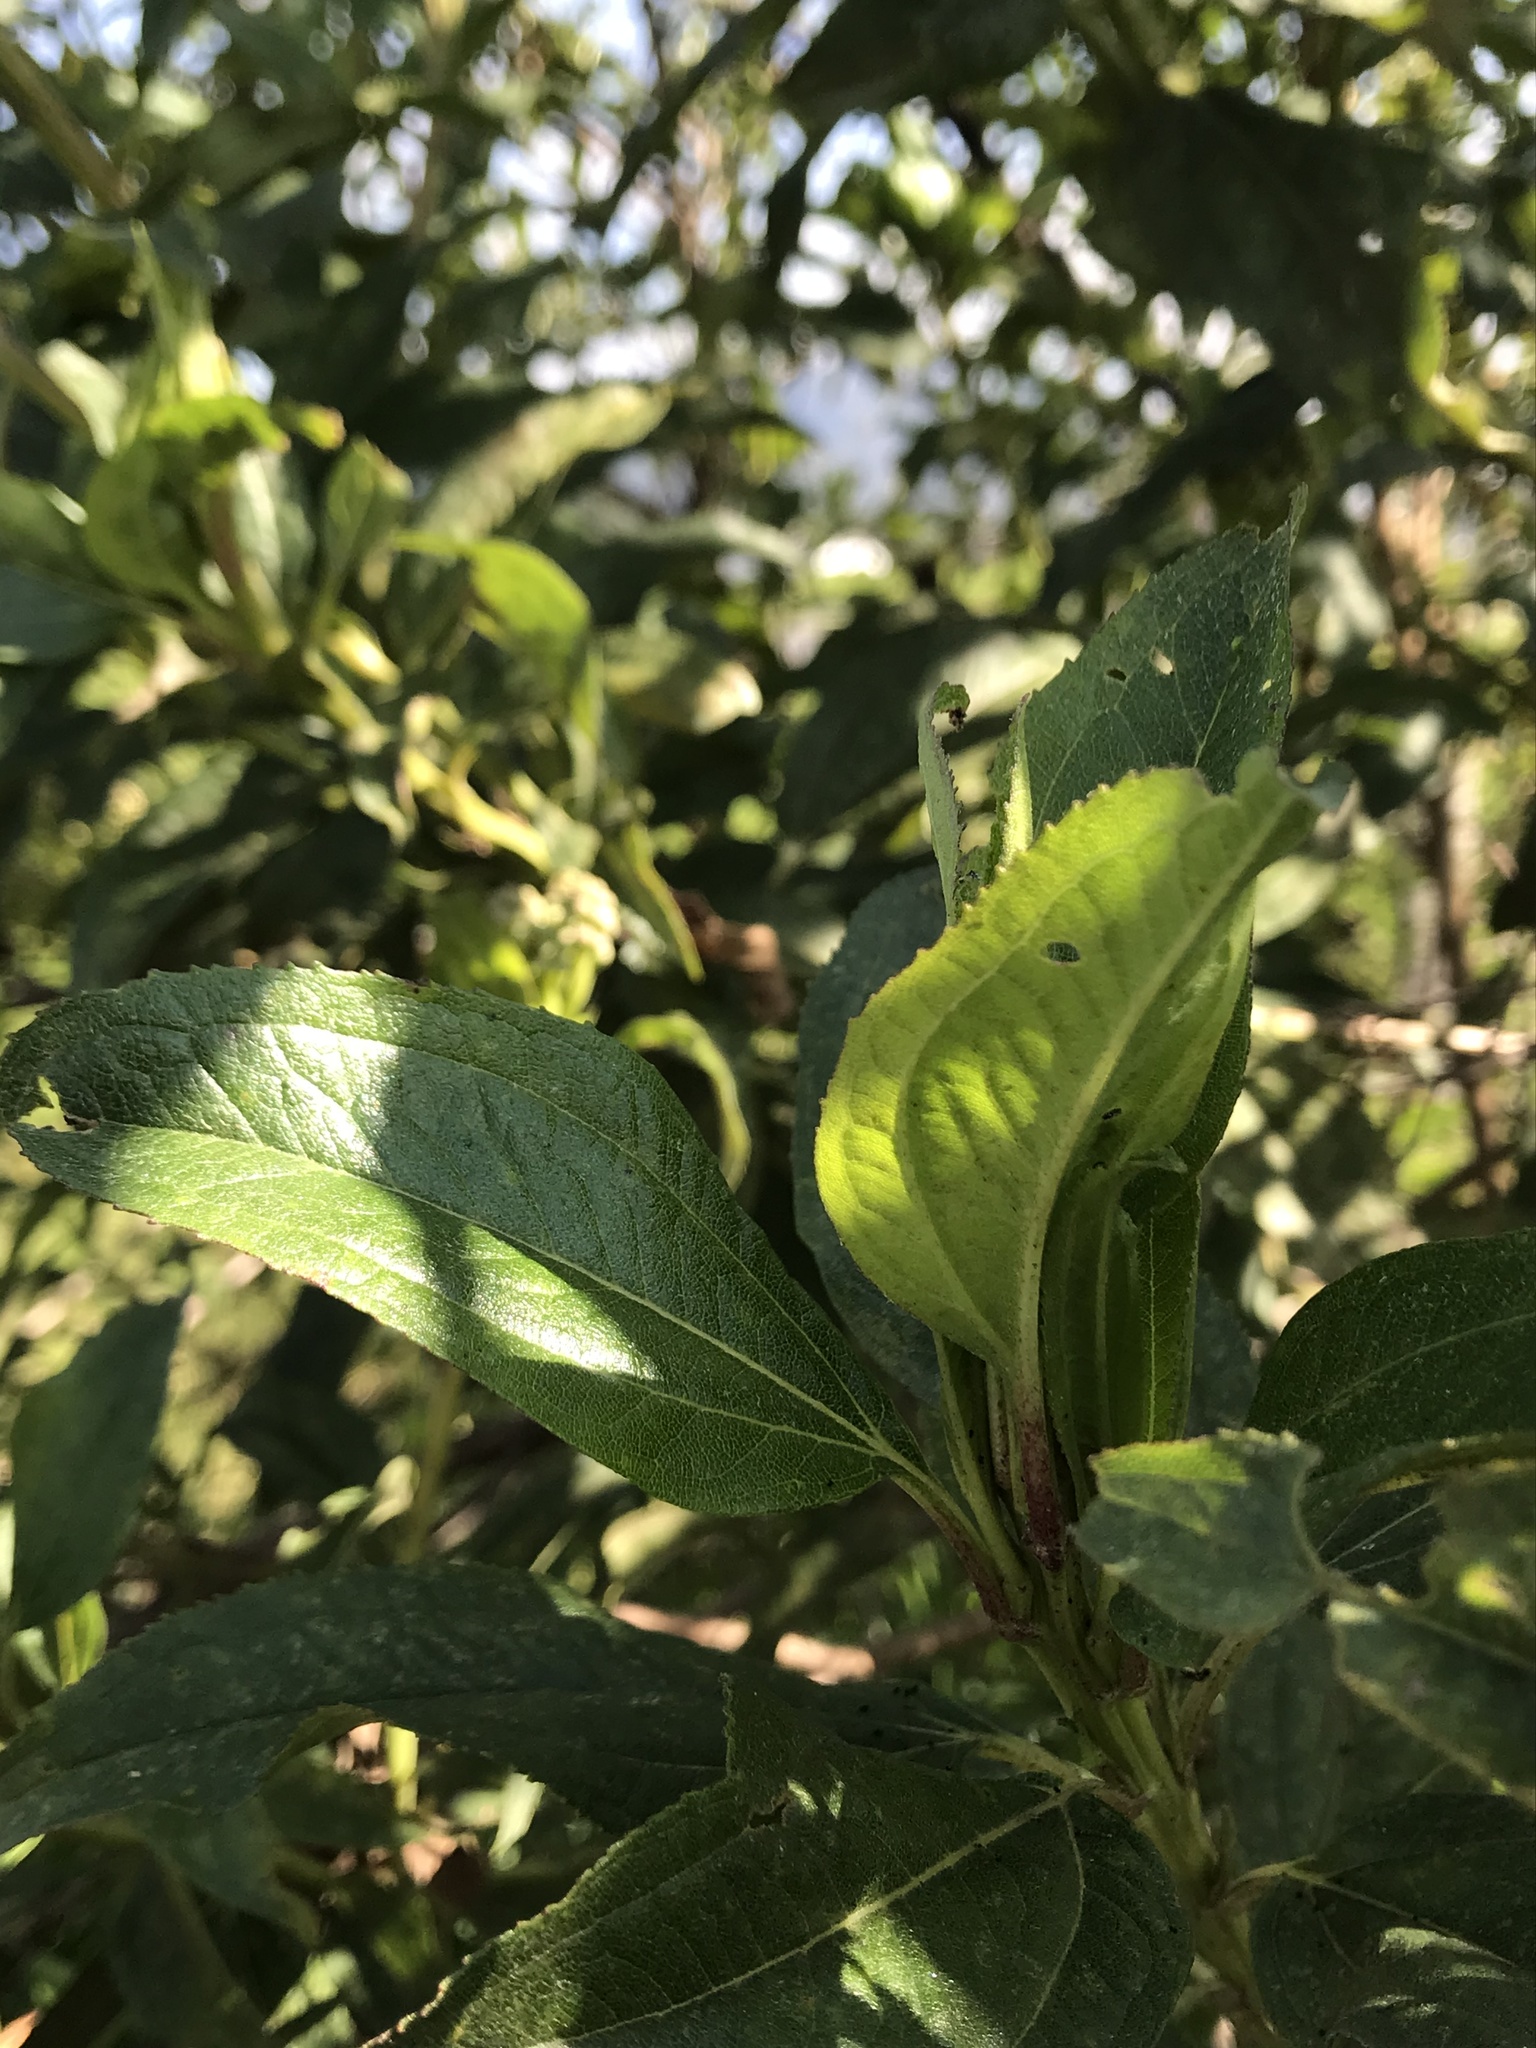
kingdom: Plantae
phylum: Tracheophyta
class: Magnoliopsida
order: Asterales
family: Asteraceae
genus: Baccharis
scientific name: Baccharis latifolia
